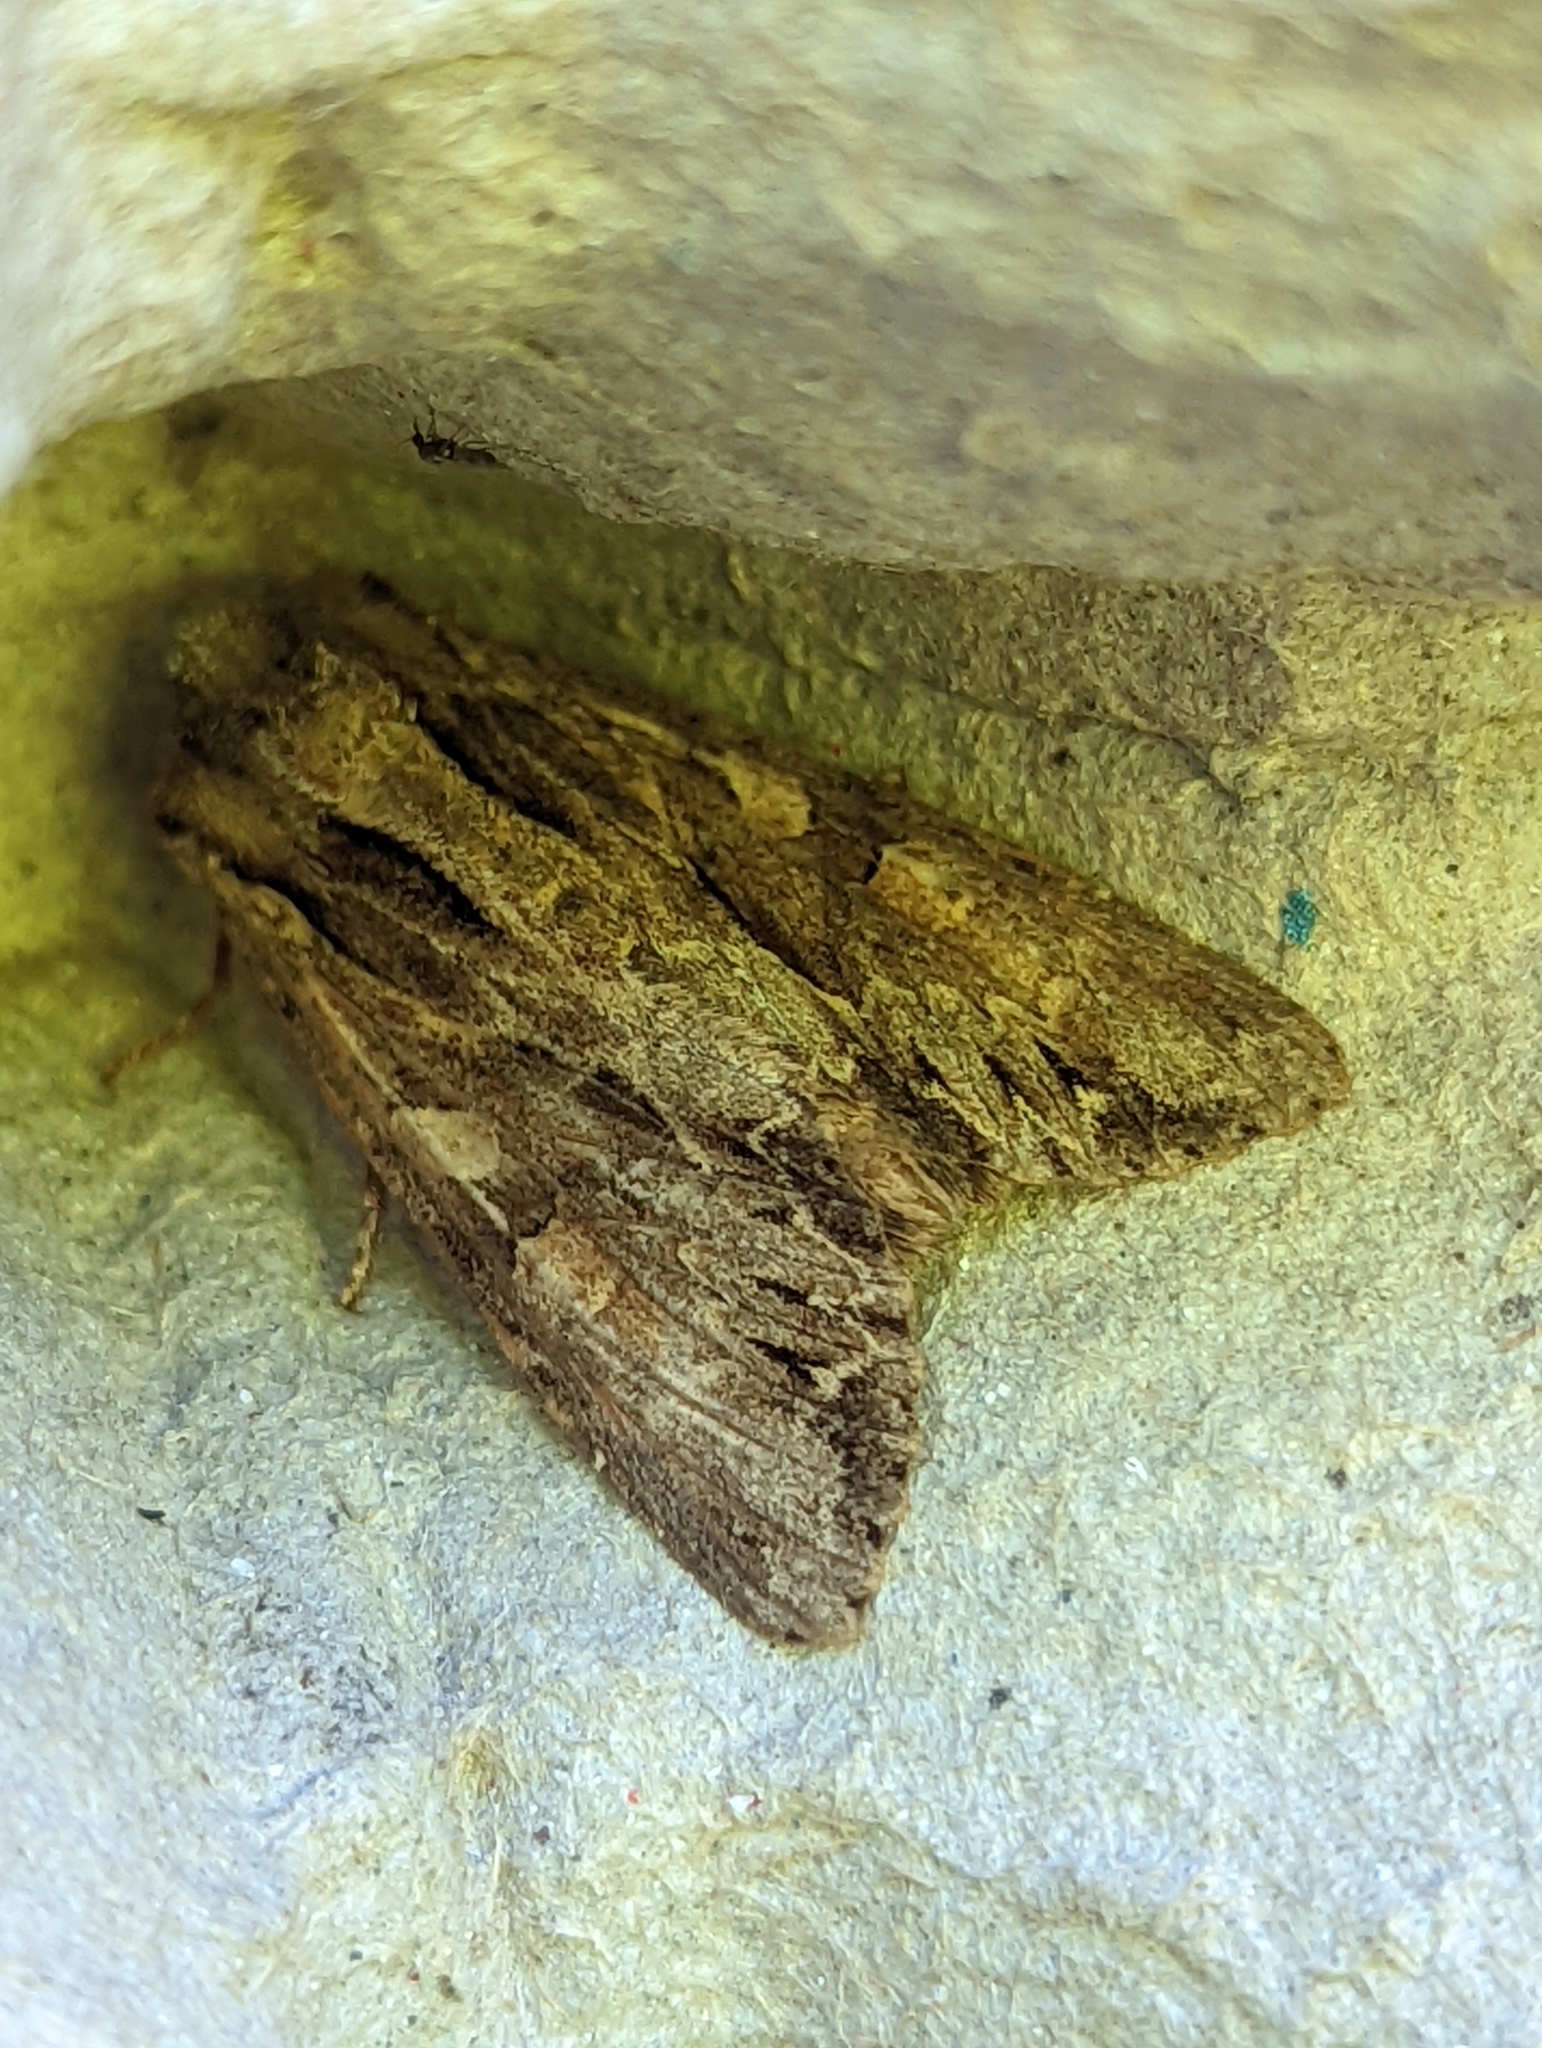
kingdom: Animalia
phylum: Arthropoda
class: Insecta
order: Lepidoptera
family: Noctuidae
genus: Apamea
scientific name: Apamea monoglypha
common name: Dark arches
